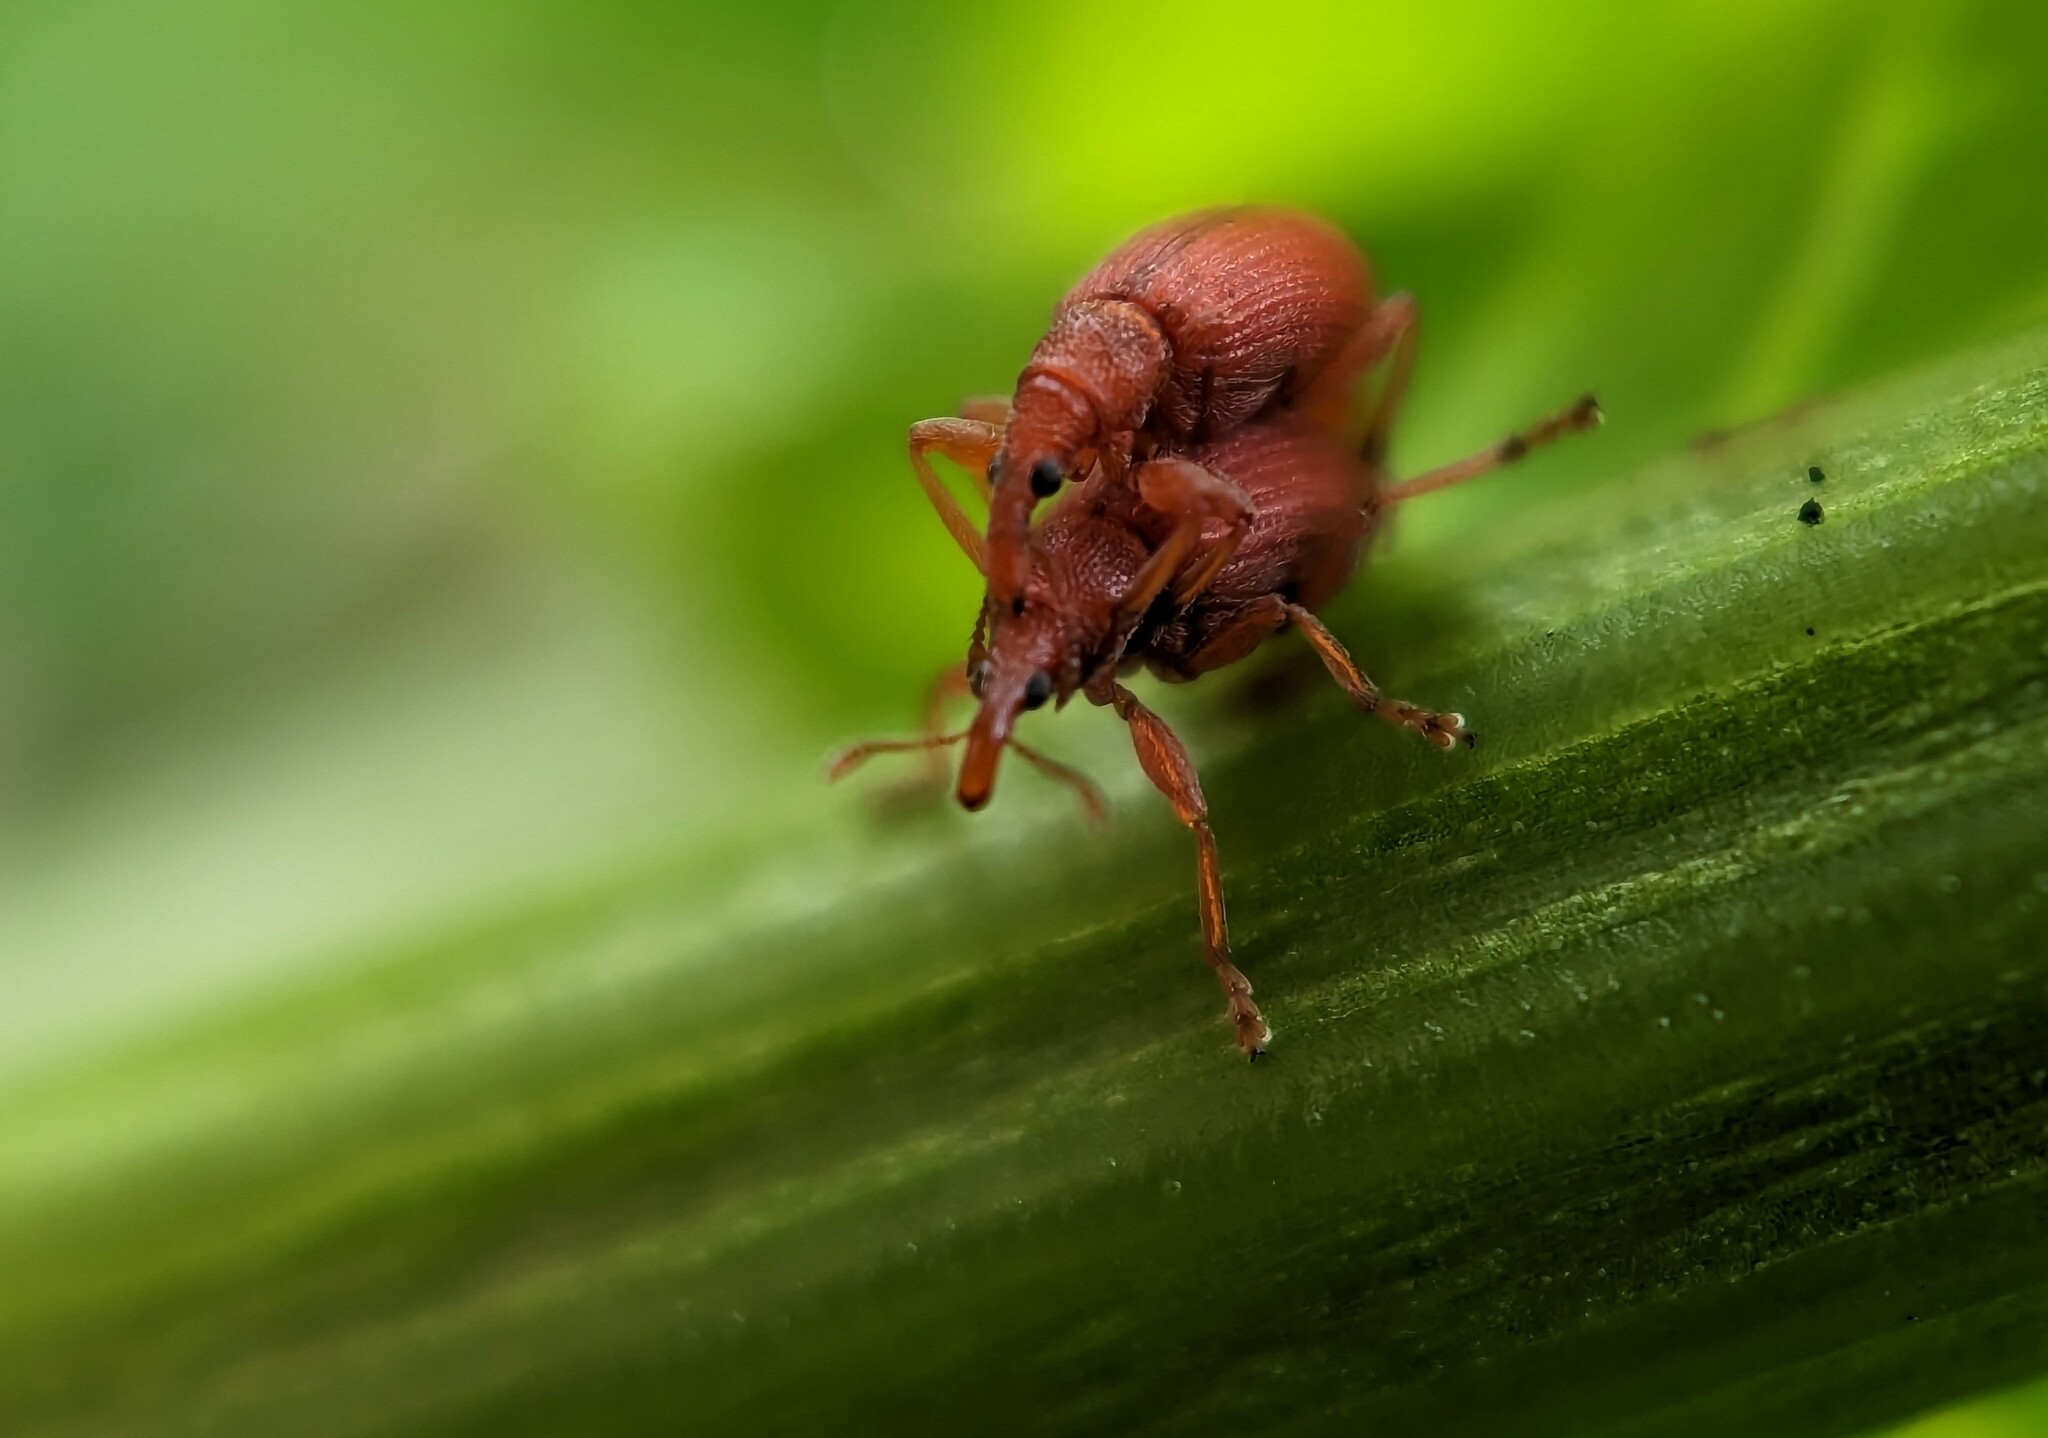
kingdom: Animalia
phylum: Arthropoda
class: Insecta
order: Coleoptera
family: Apionidae
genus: Apion
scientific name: Apion frumentarium
